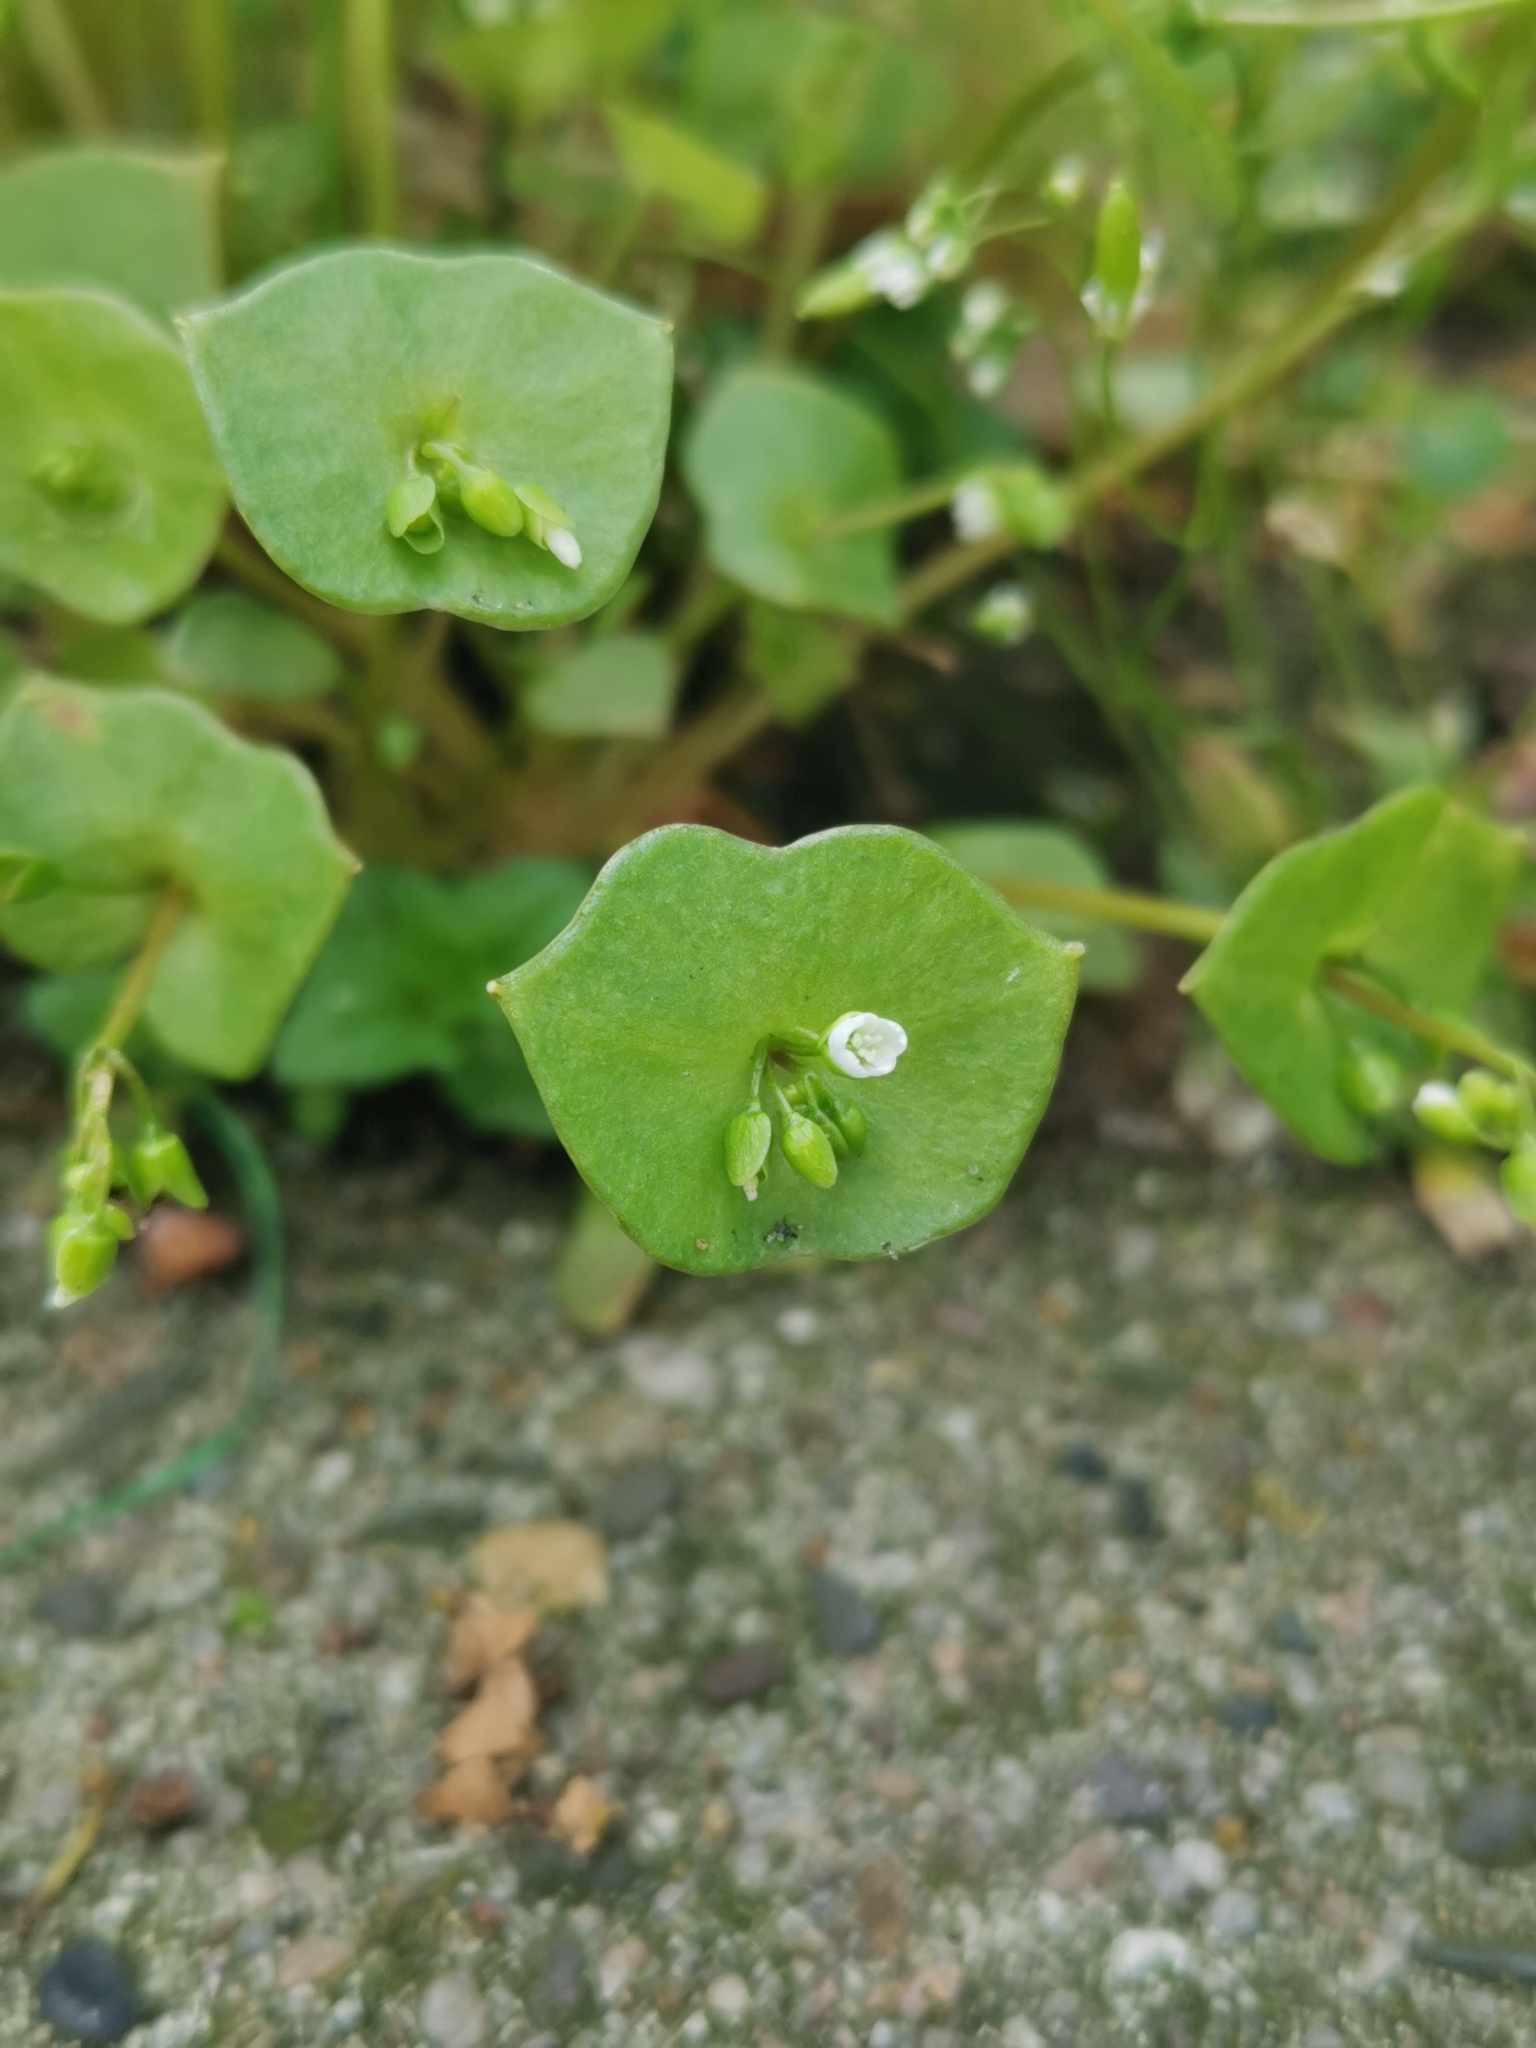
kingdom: Plantae
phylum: Tracheophyta
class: Magnoliopsida
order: Caryophyllales
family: Montiaceae
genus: Claytonia
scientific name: Claytonia perfoliata
